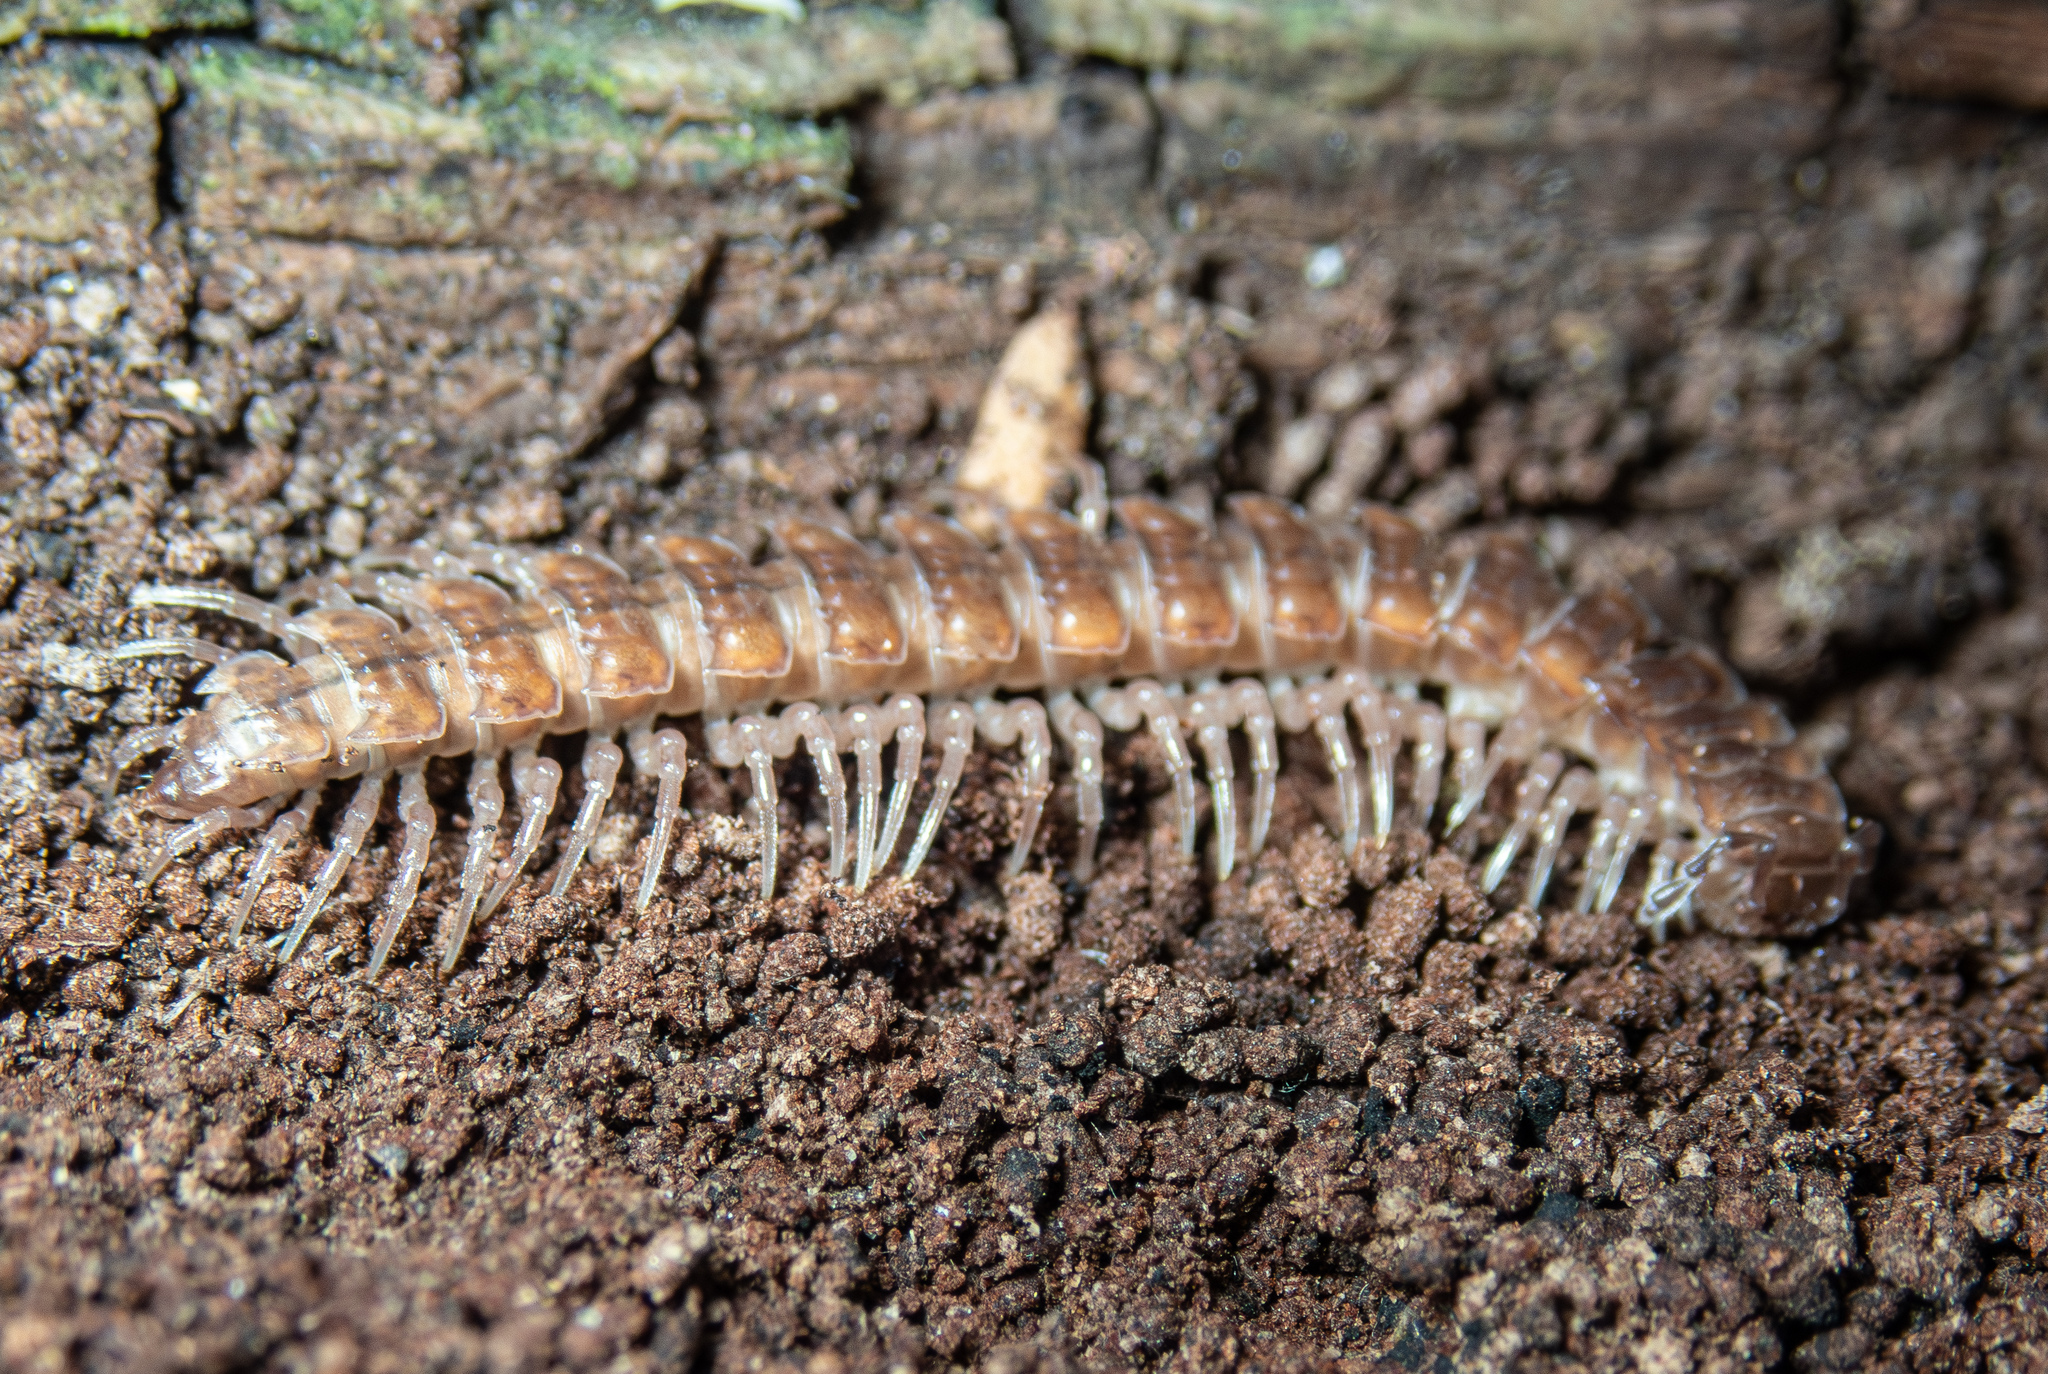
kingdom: Animalia
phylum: Arthropoda
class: Diplopoda
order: Polydesmida
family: Polydesmidae
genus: Polydesmus
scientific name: Polydesmus complanatus
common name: Flat-backed millipede
